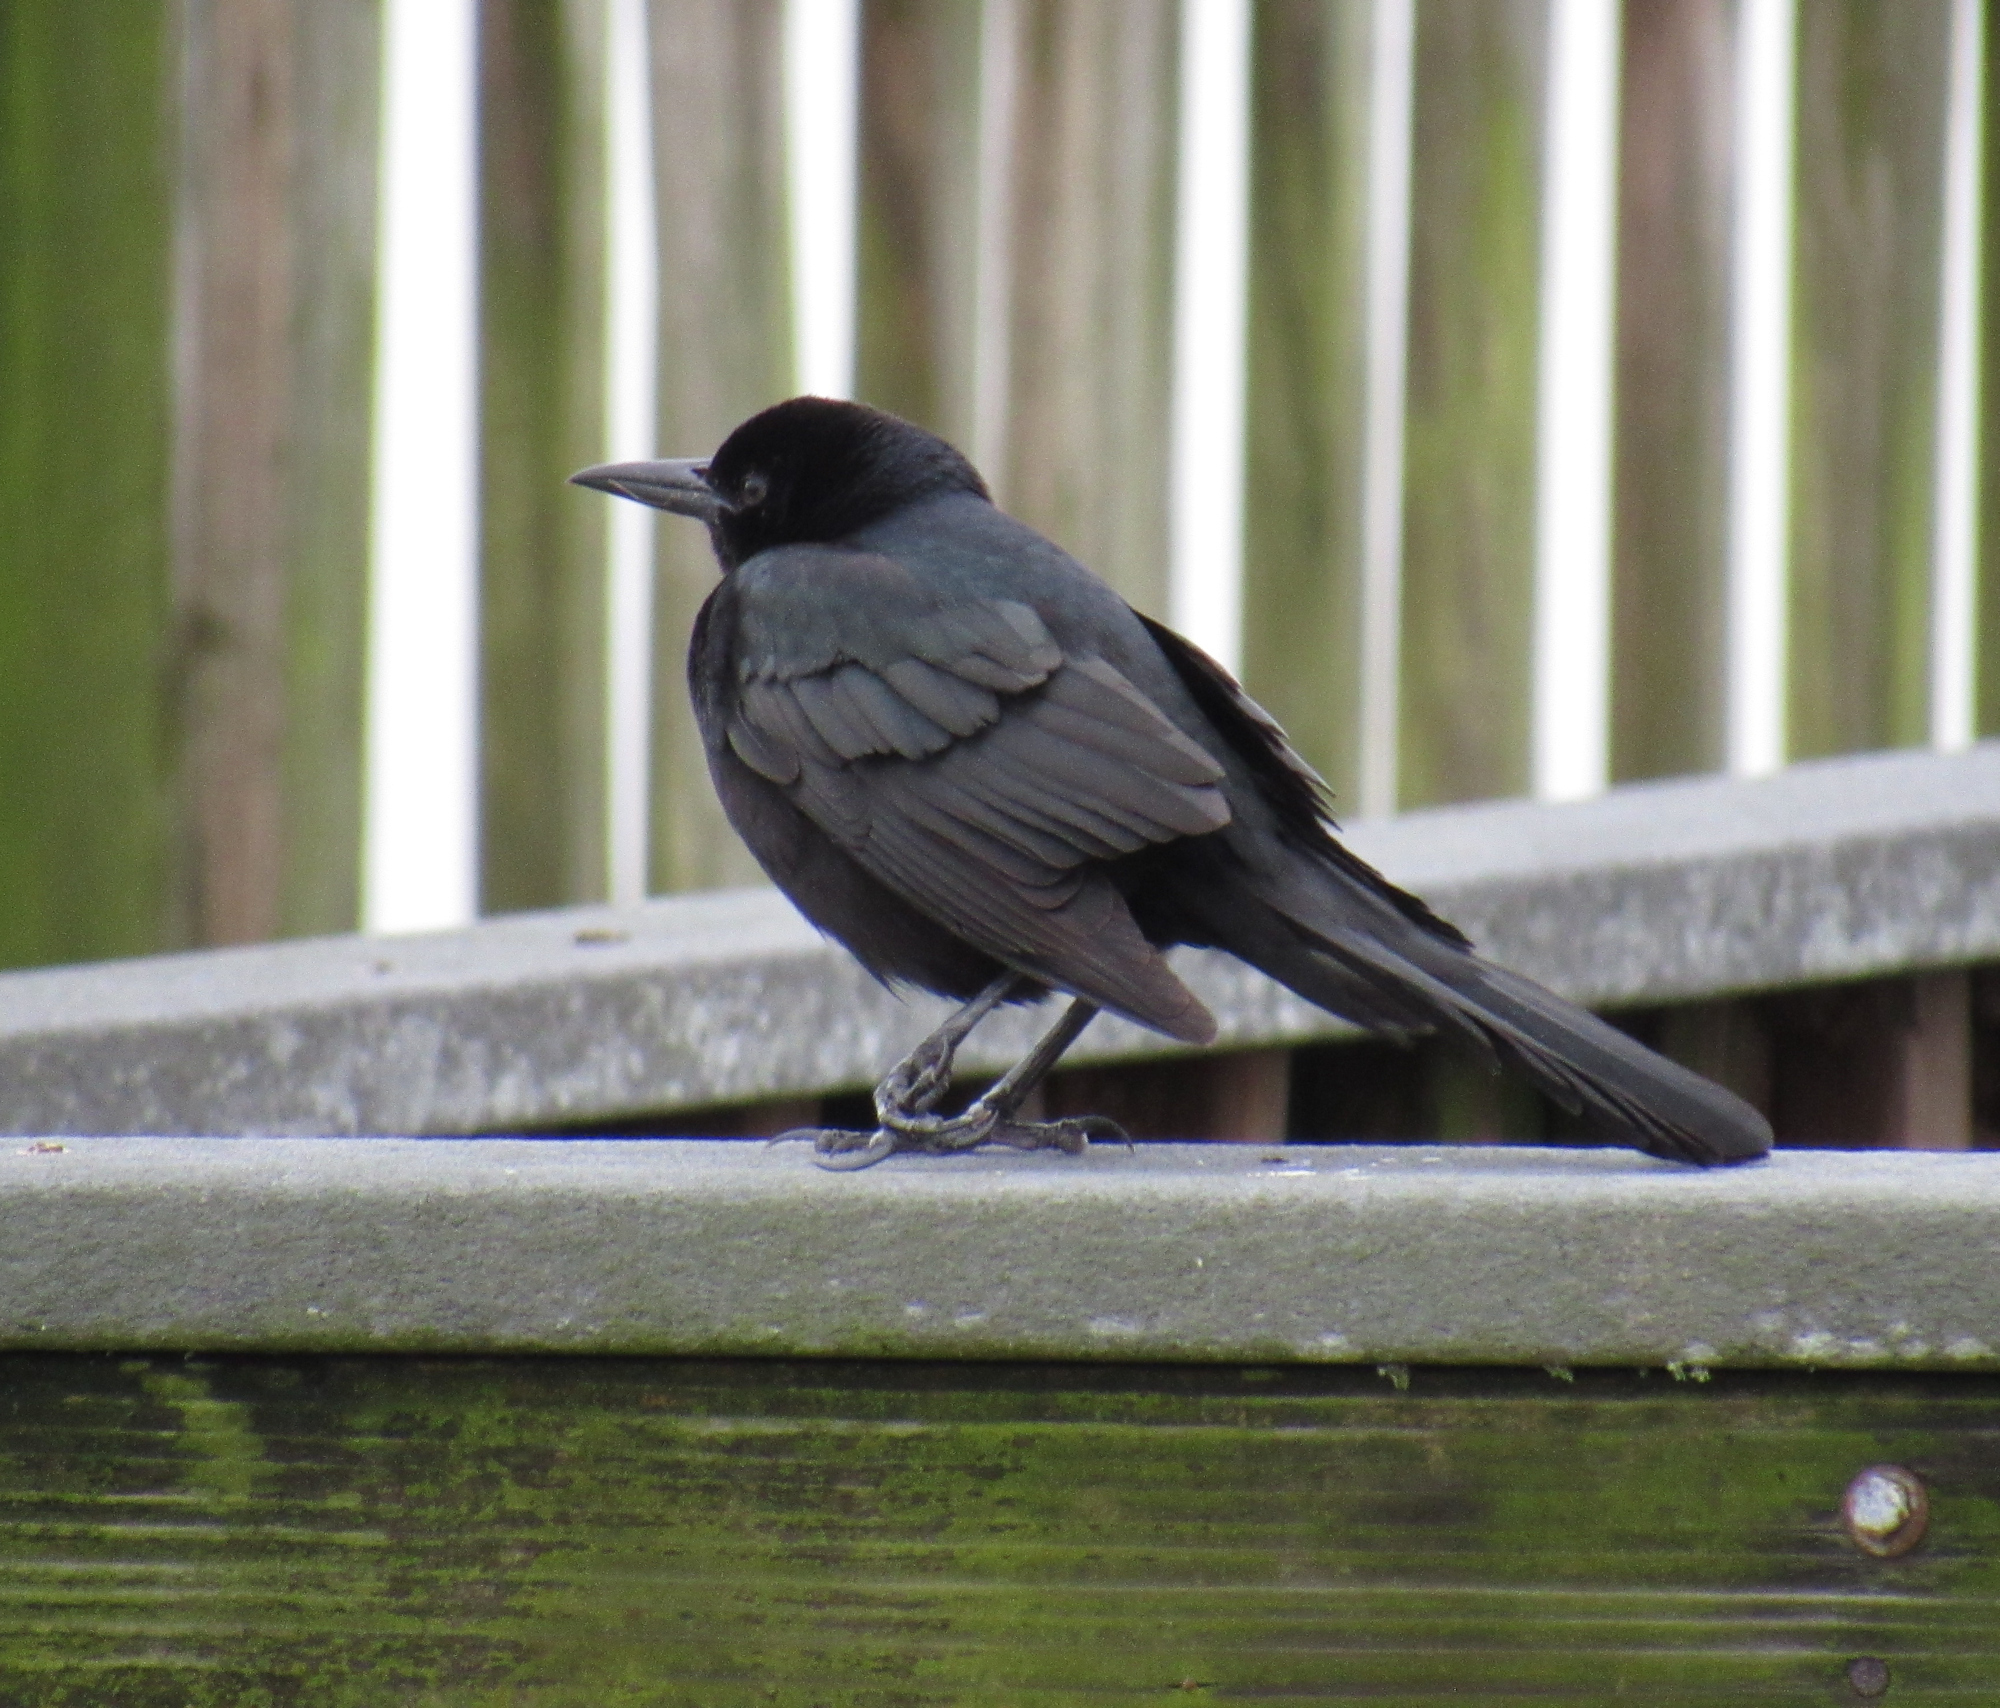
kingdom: Animalia
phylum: Chordata
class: Aves
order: Passeriformes
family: Icteridae
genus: Quiscalus
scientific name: Quiscalus major
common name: Boat-tailed grackle
